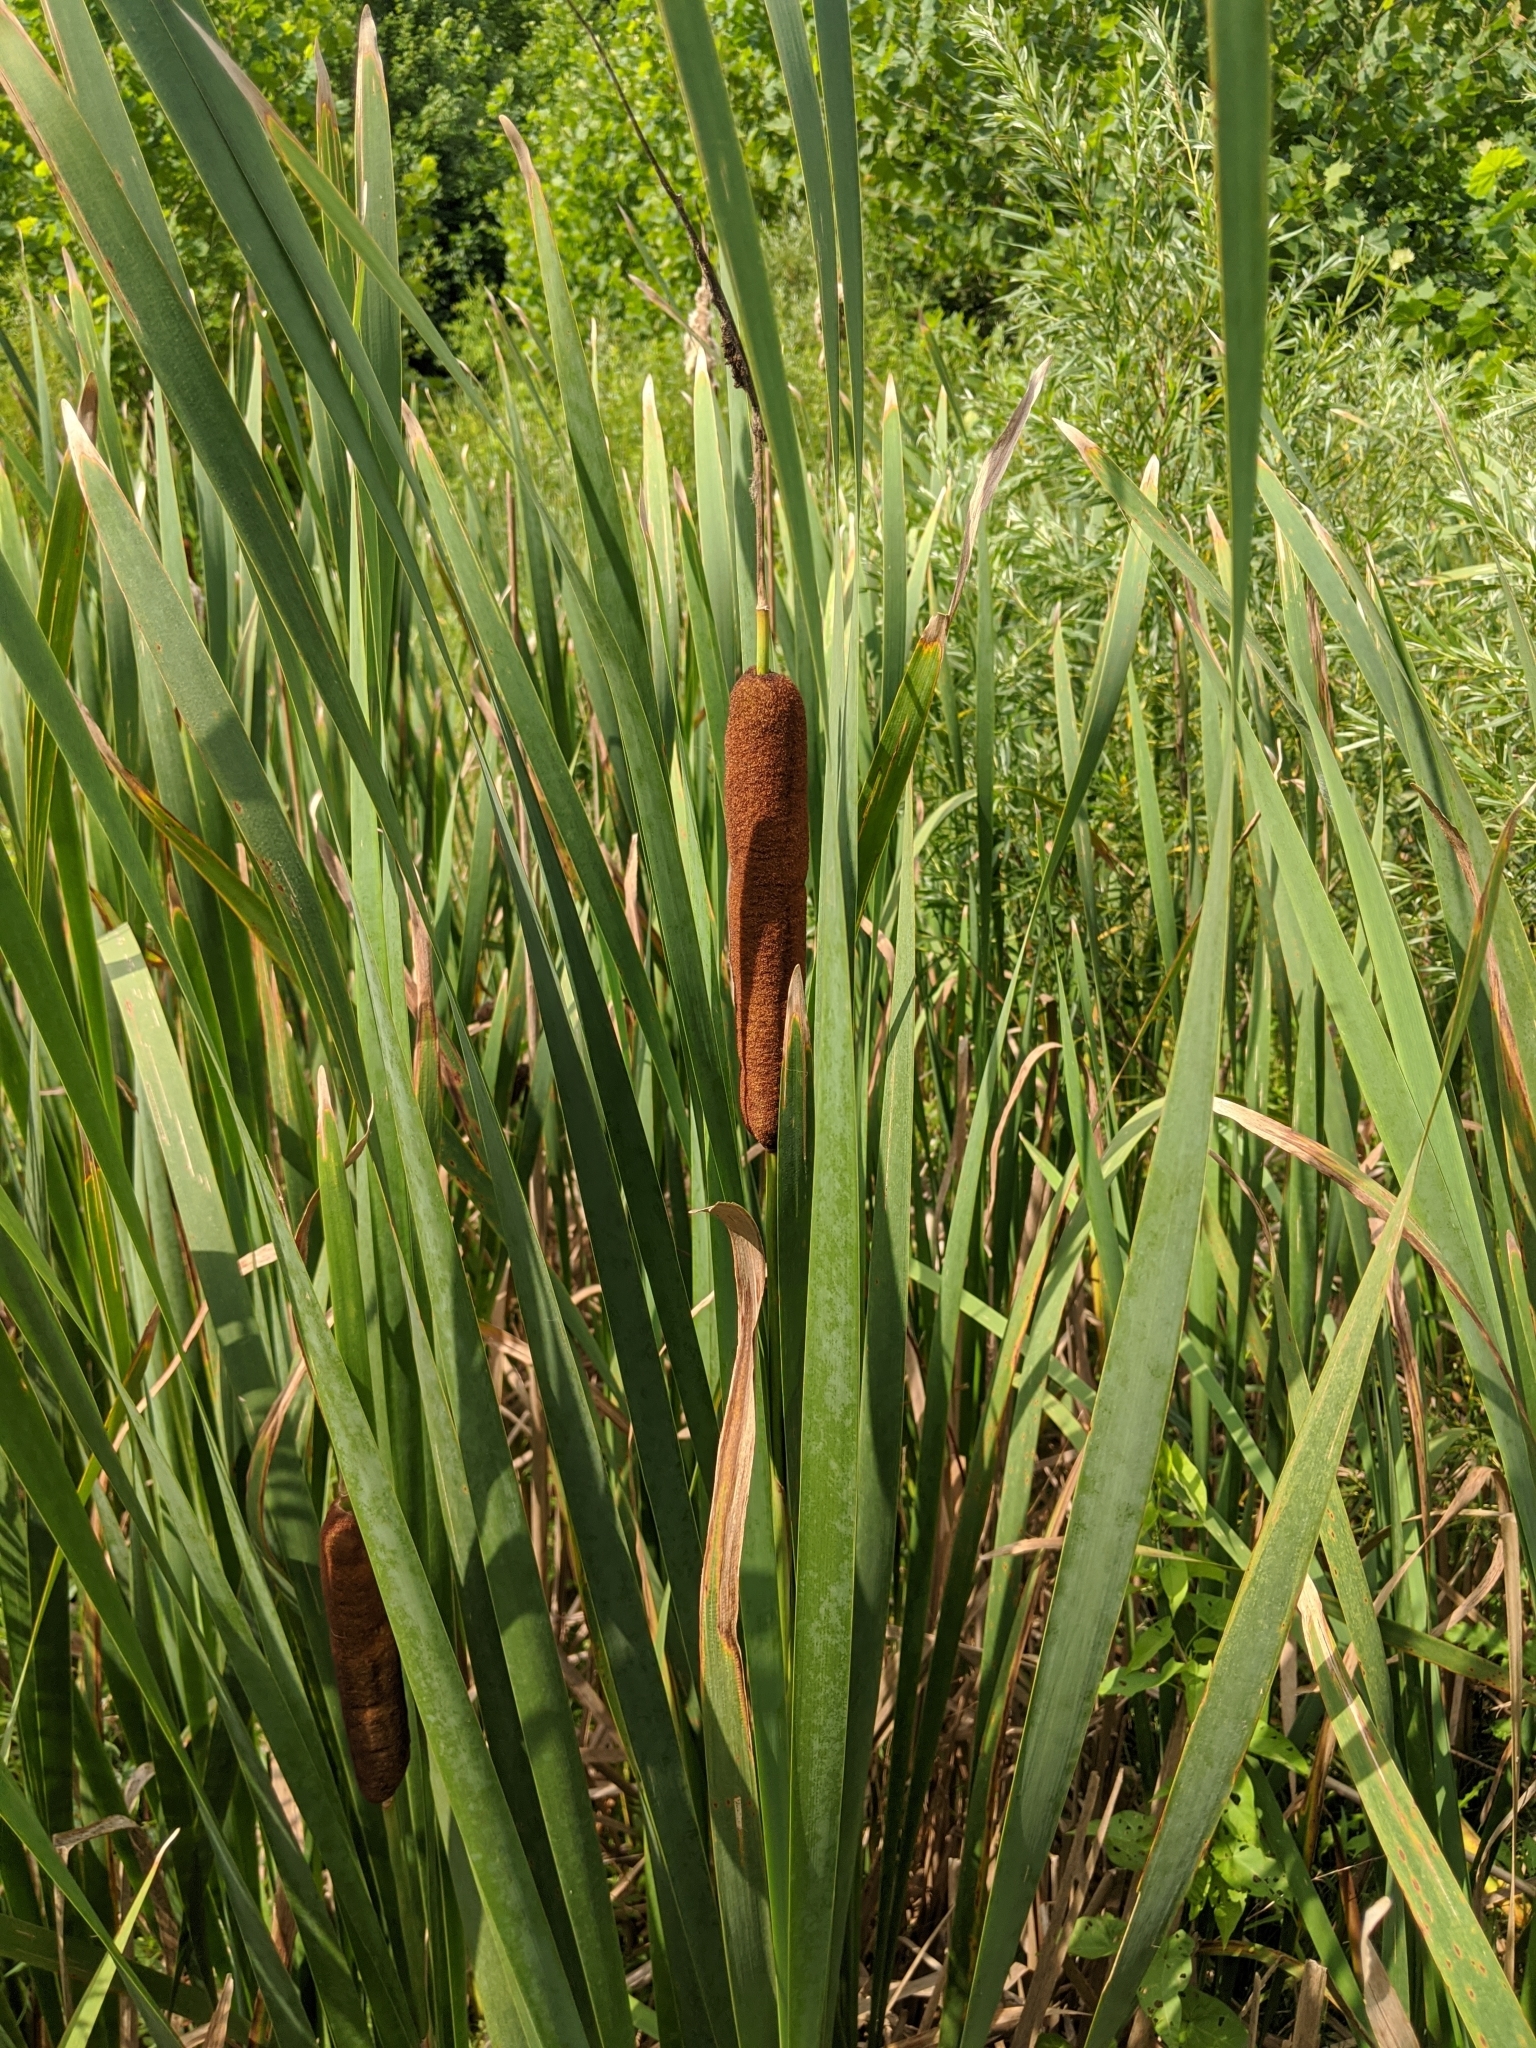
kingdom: Plantae
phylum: Tracheophyta
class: Liliopsida
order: Poales
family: Typhaceae
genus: Typha
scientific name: Typha latifolia
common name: Broadleaf cattail
